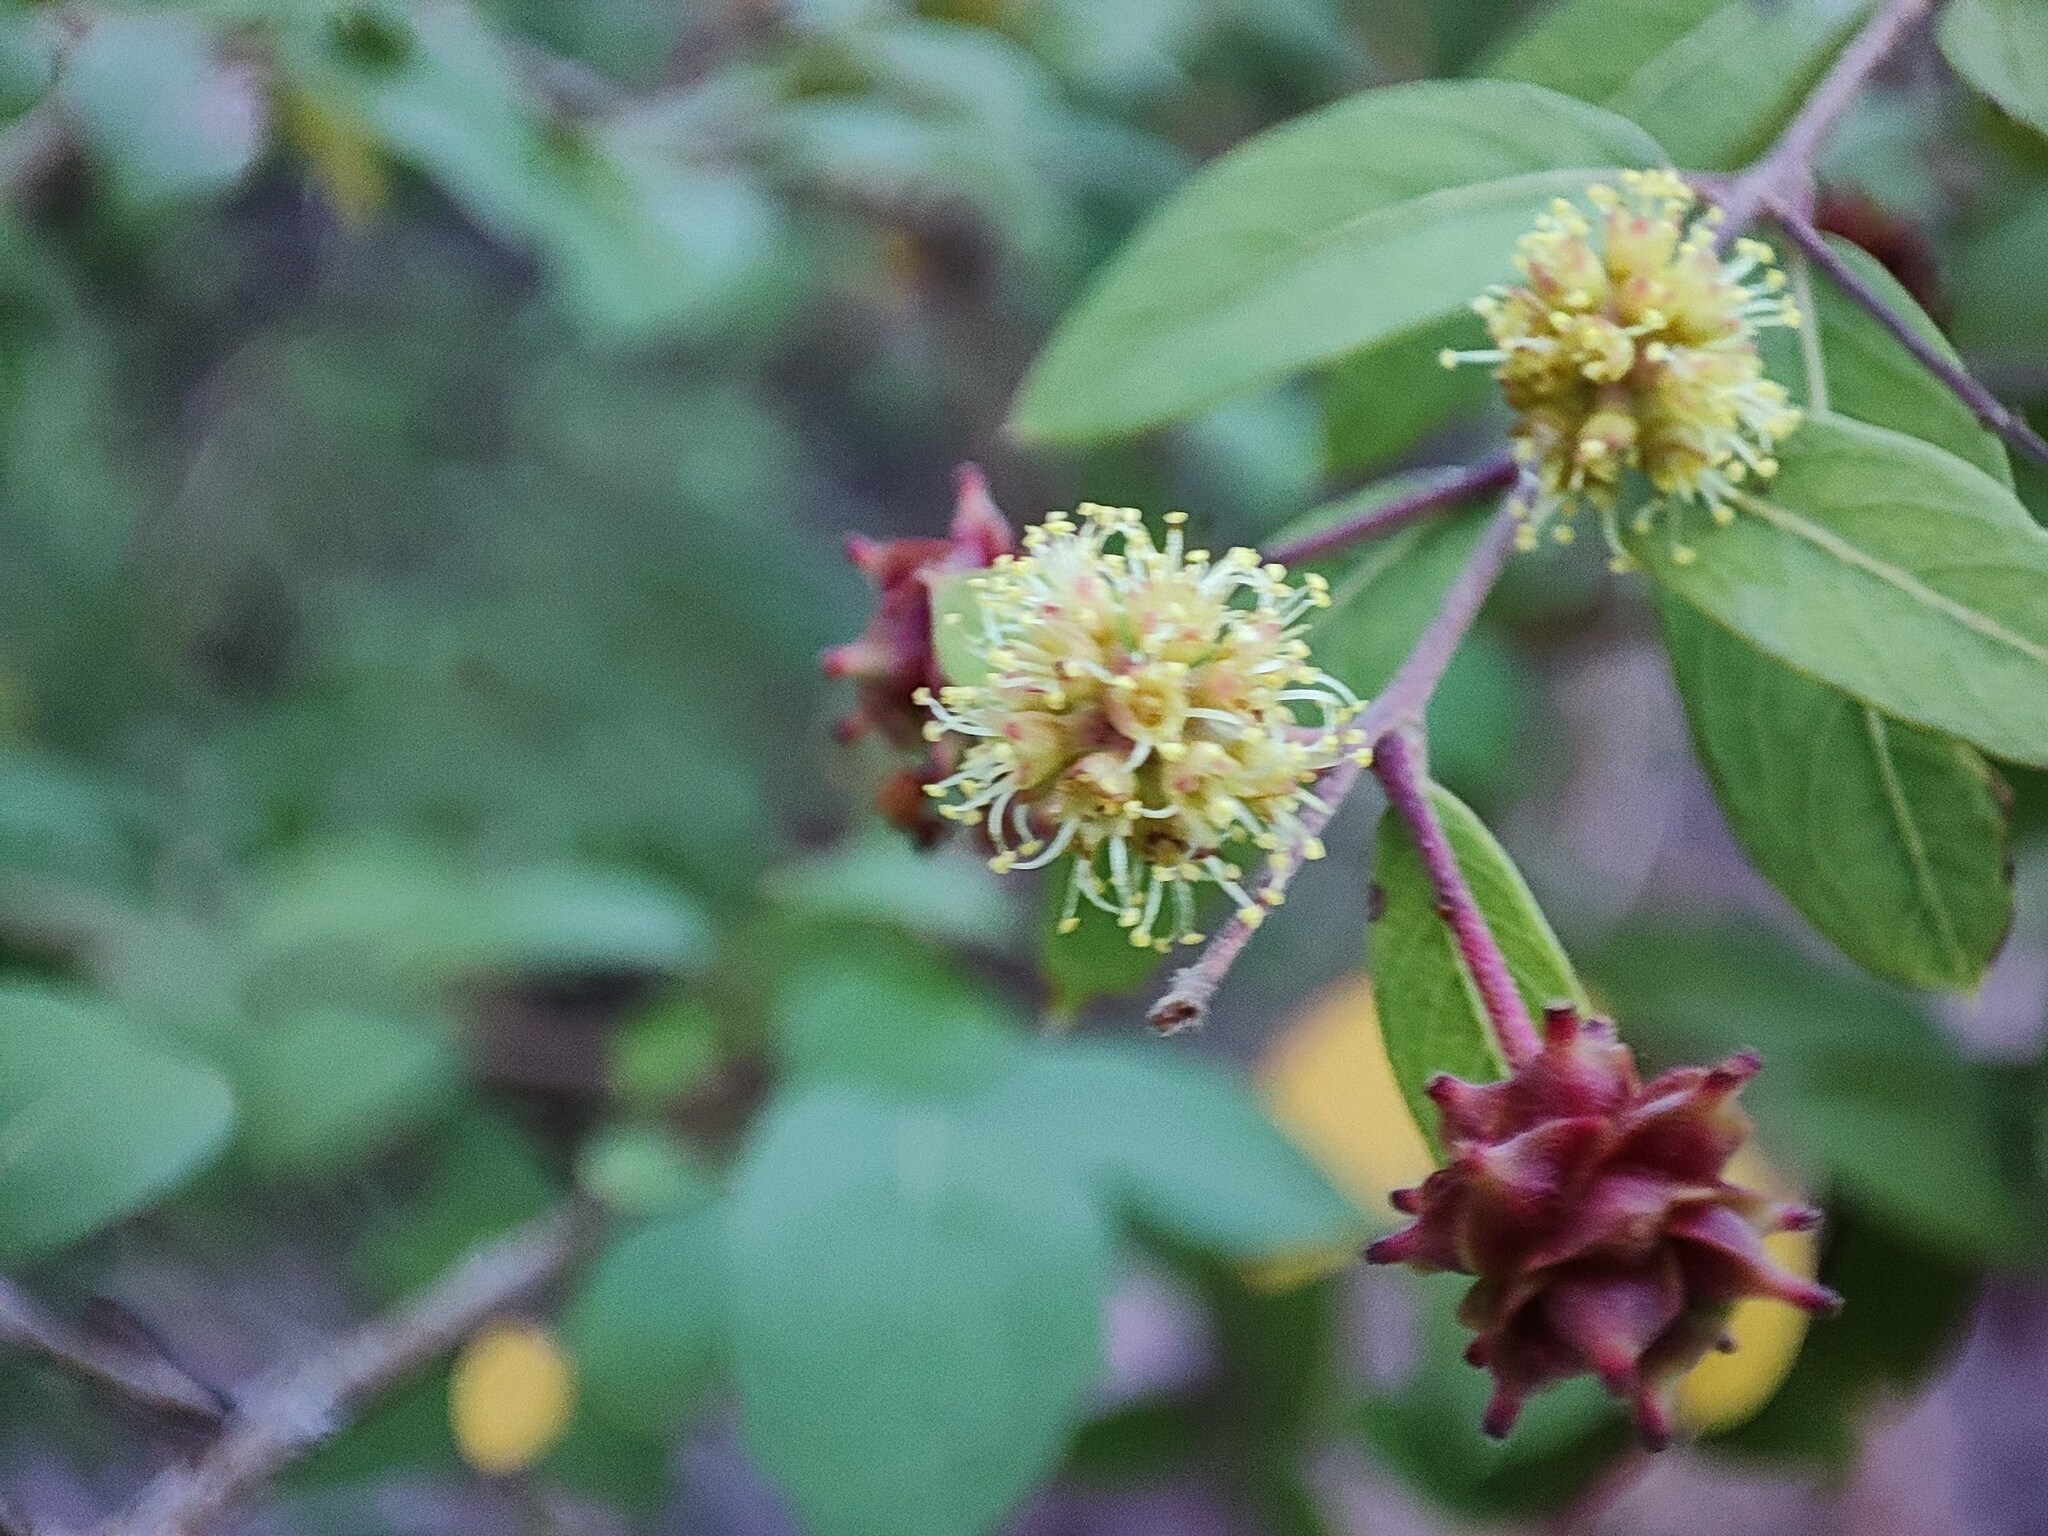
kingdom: Plantae
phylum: Tracheophyta
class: Magnoliopsida
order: Myrtales
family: Combretaceae
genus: Terminalia
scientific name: Terminalia pendula
